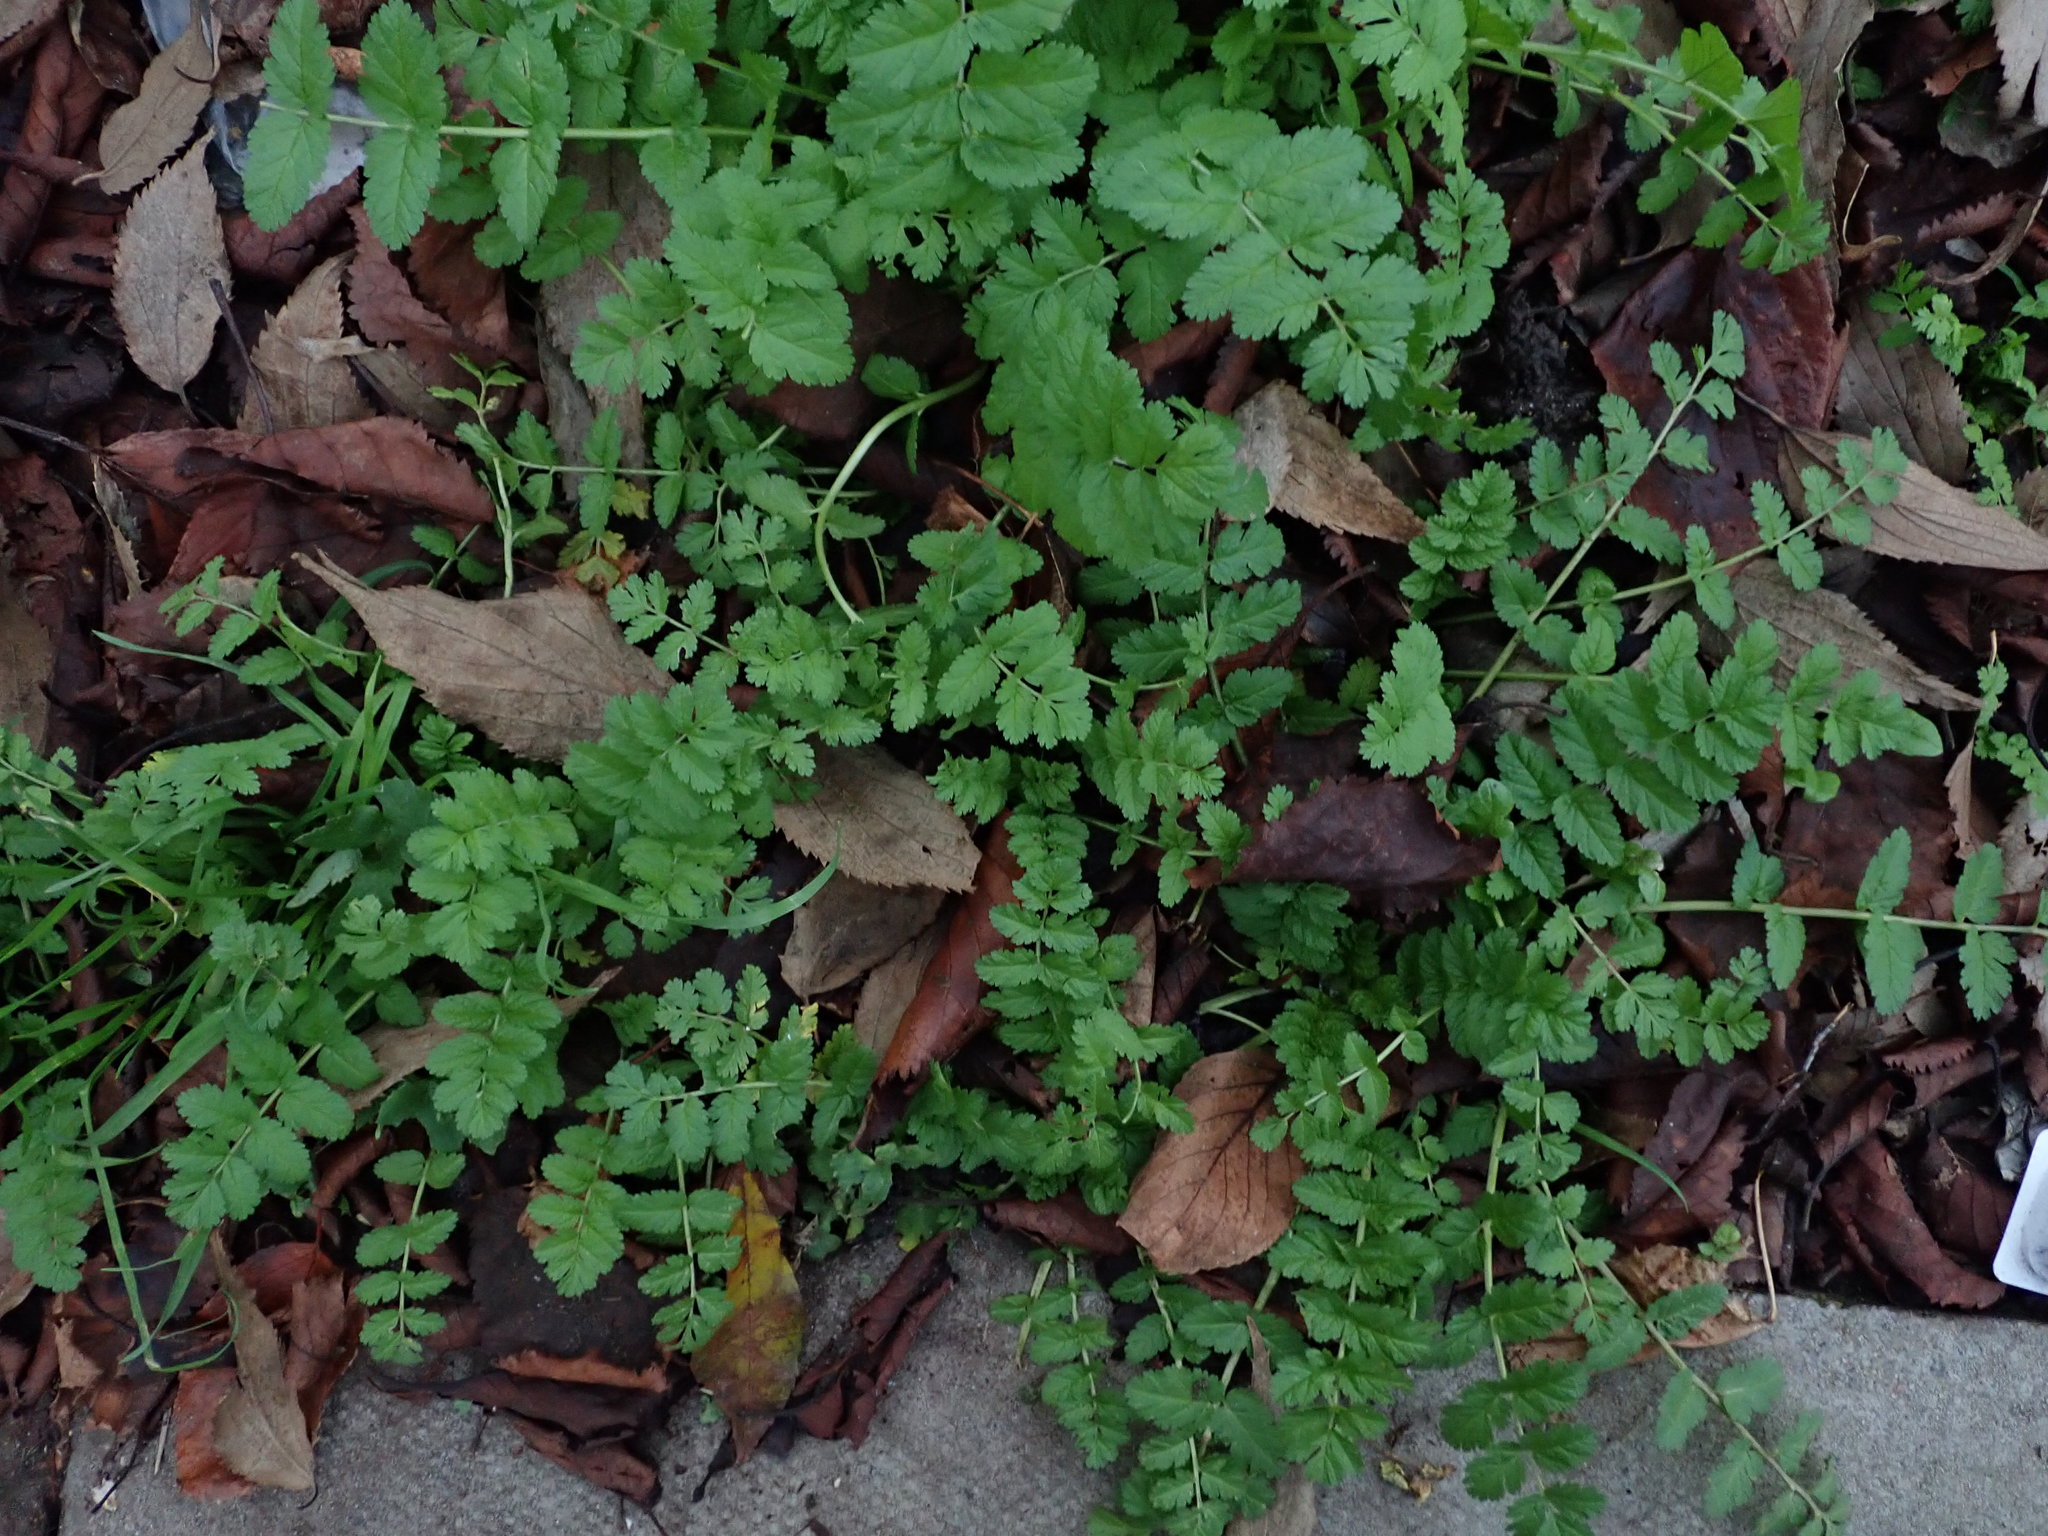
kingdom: Plantae
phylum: Tracheophyta
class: Magnoliopsida
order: Geraniales
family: Geraniaceae
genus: Erodium
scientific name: Erodium moschatum
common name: Musk stork's-bill
